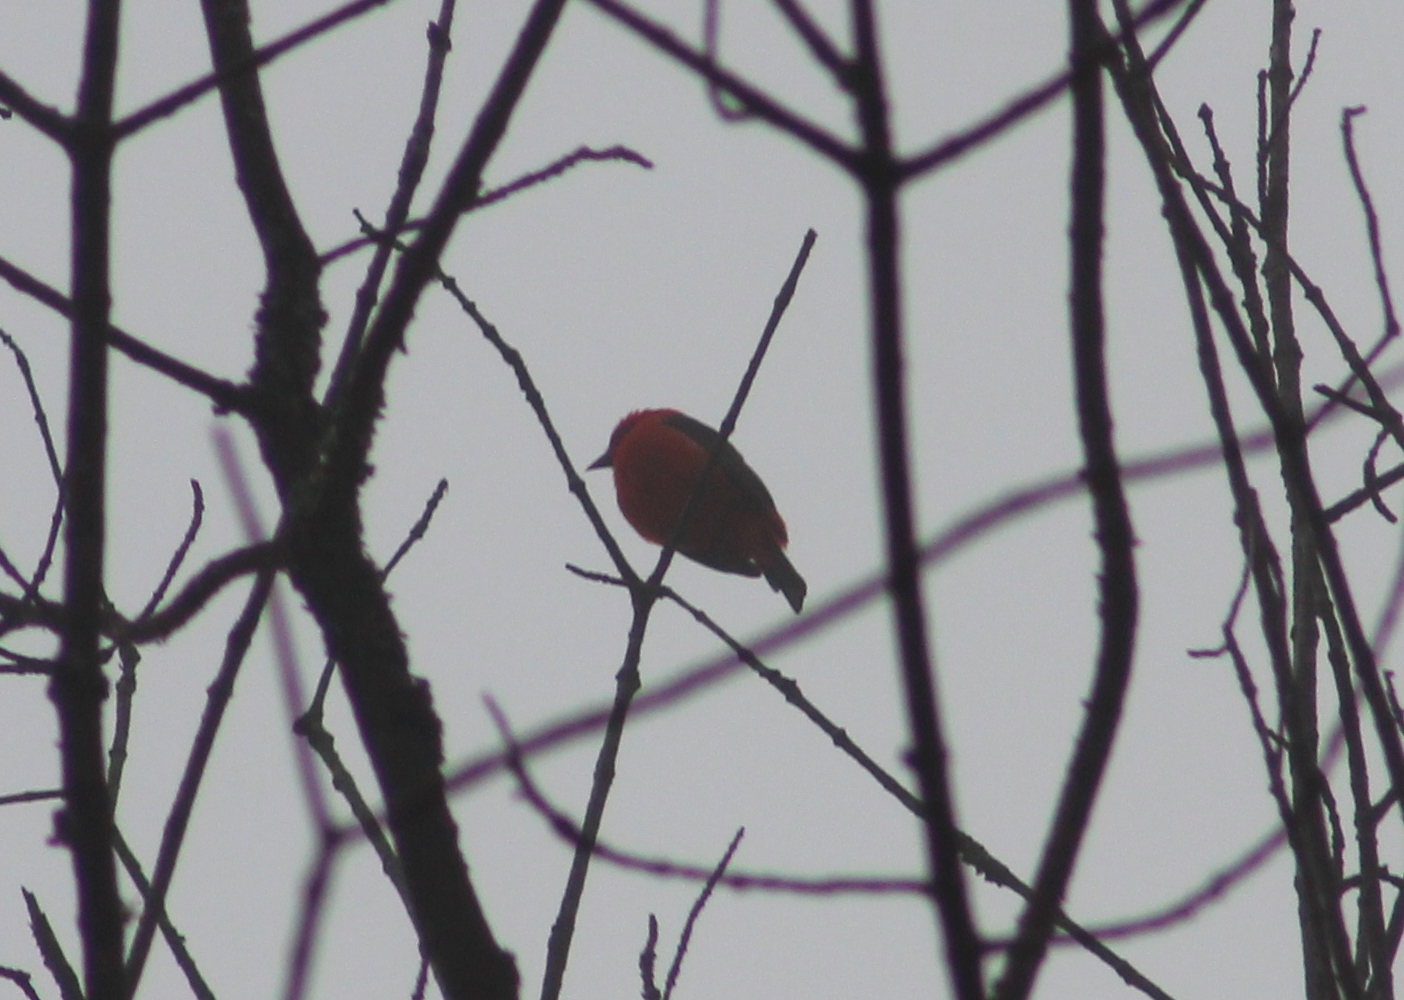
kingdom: Animalia
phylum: Chordata
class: Aves
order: Passeriformes
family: Cardinalidae
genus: Piranga
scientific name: Piranga olivacea
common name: Scarlet tanager
